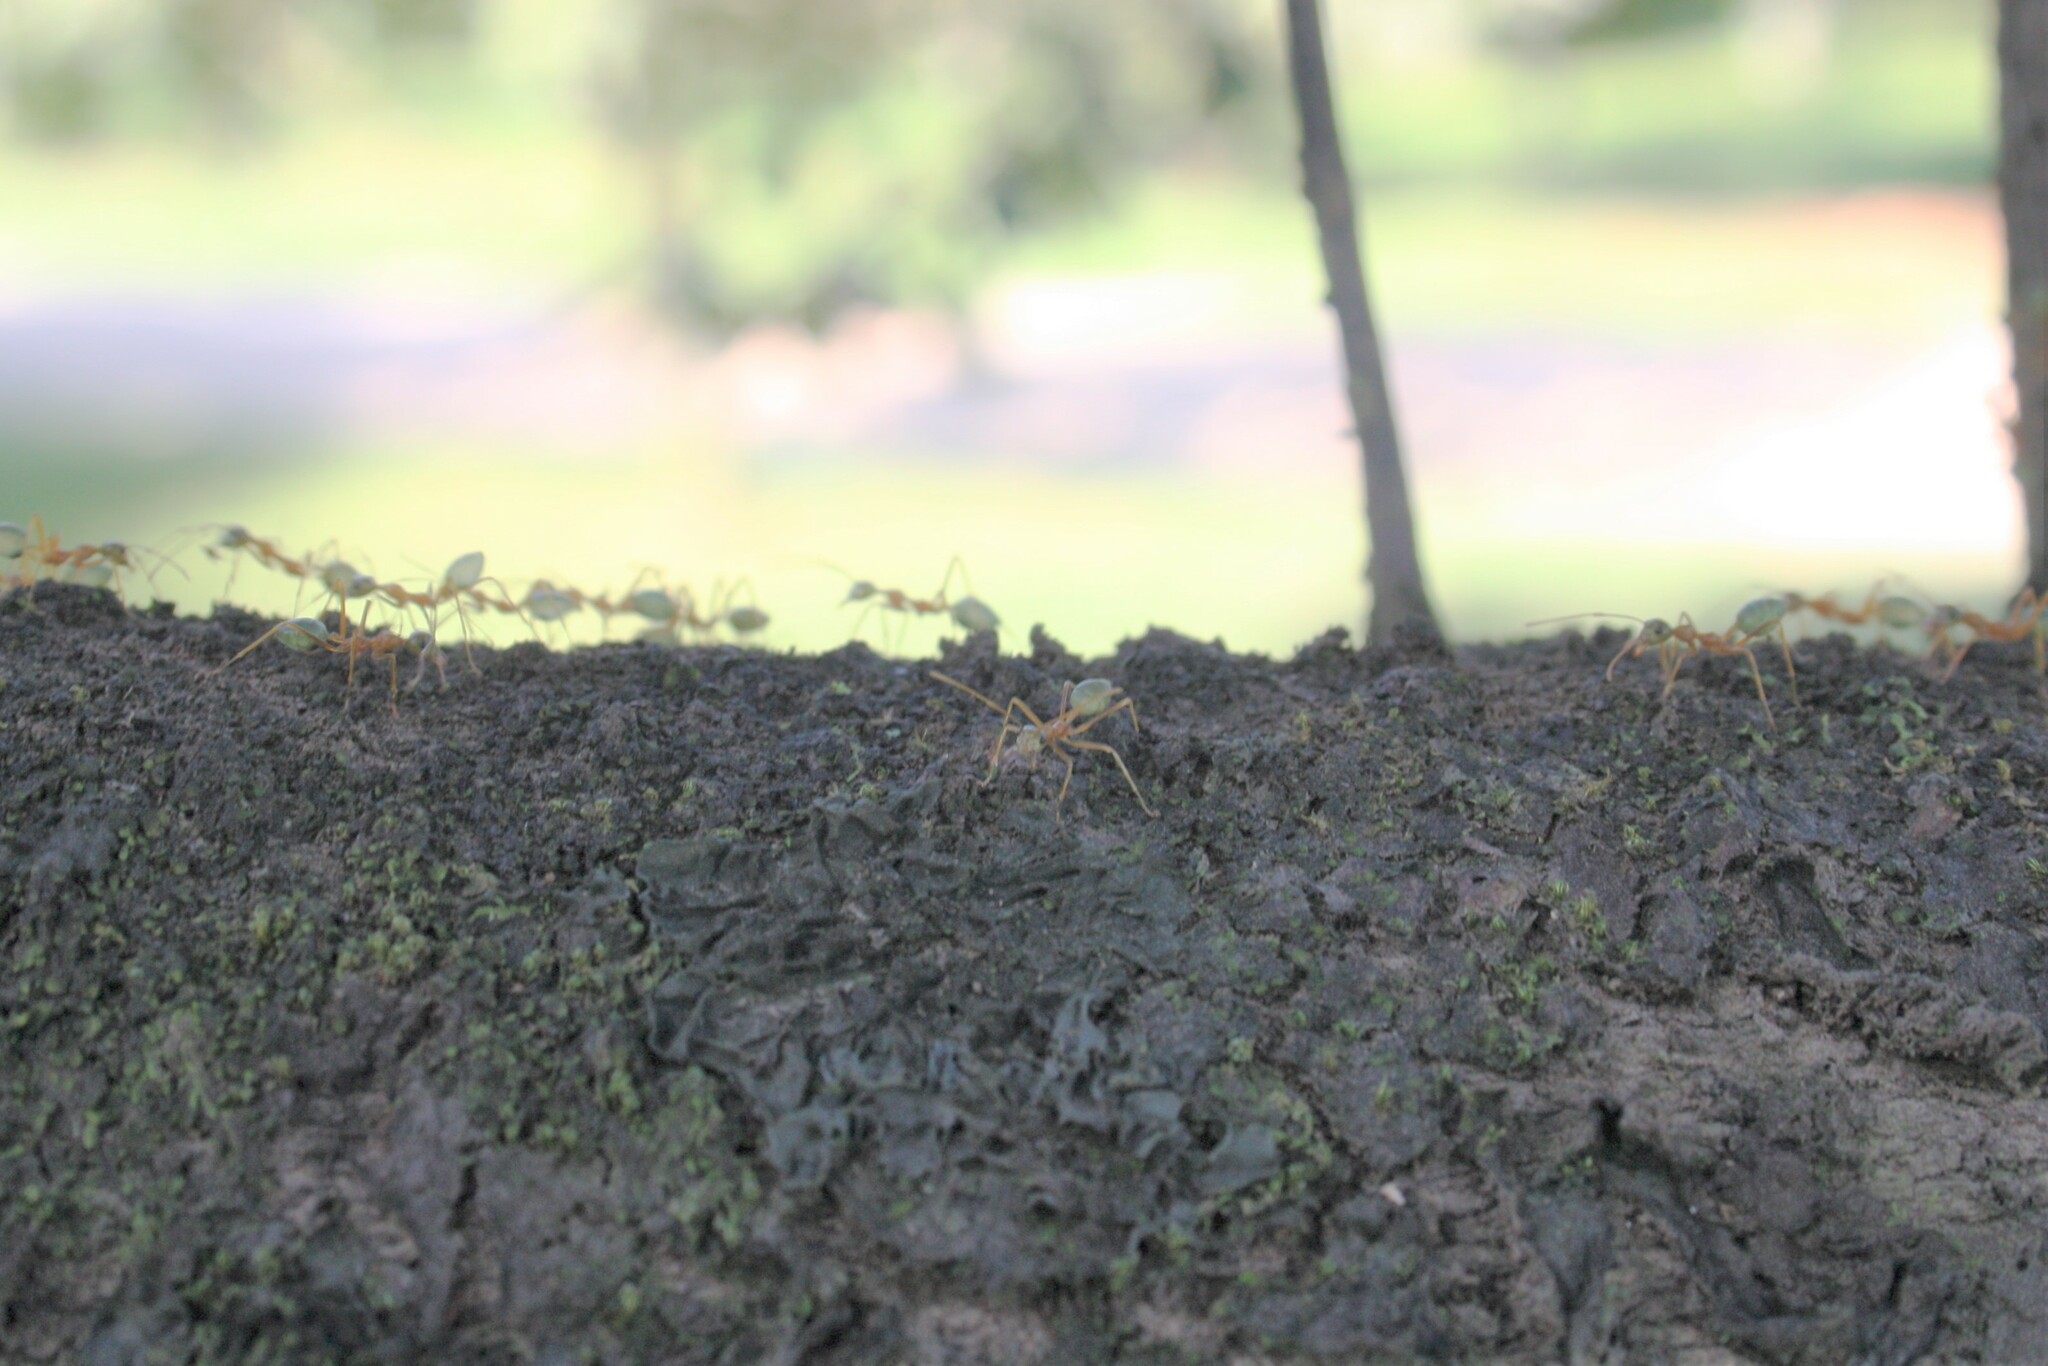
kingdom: Animalia
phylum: Arthropoda
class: Insecta
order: Hymenoptera
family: Formicidae
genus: Oecophylla
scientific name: Oecophylla smaragdina
